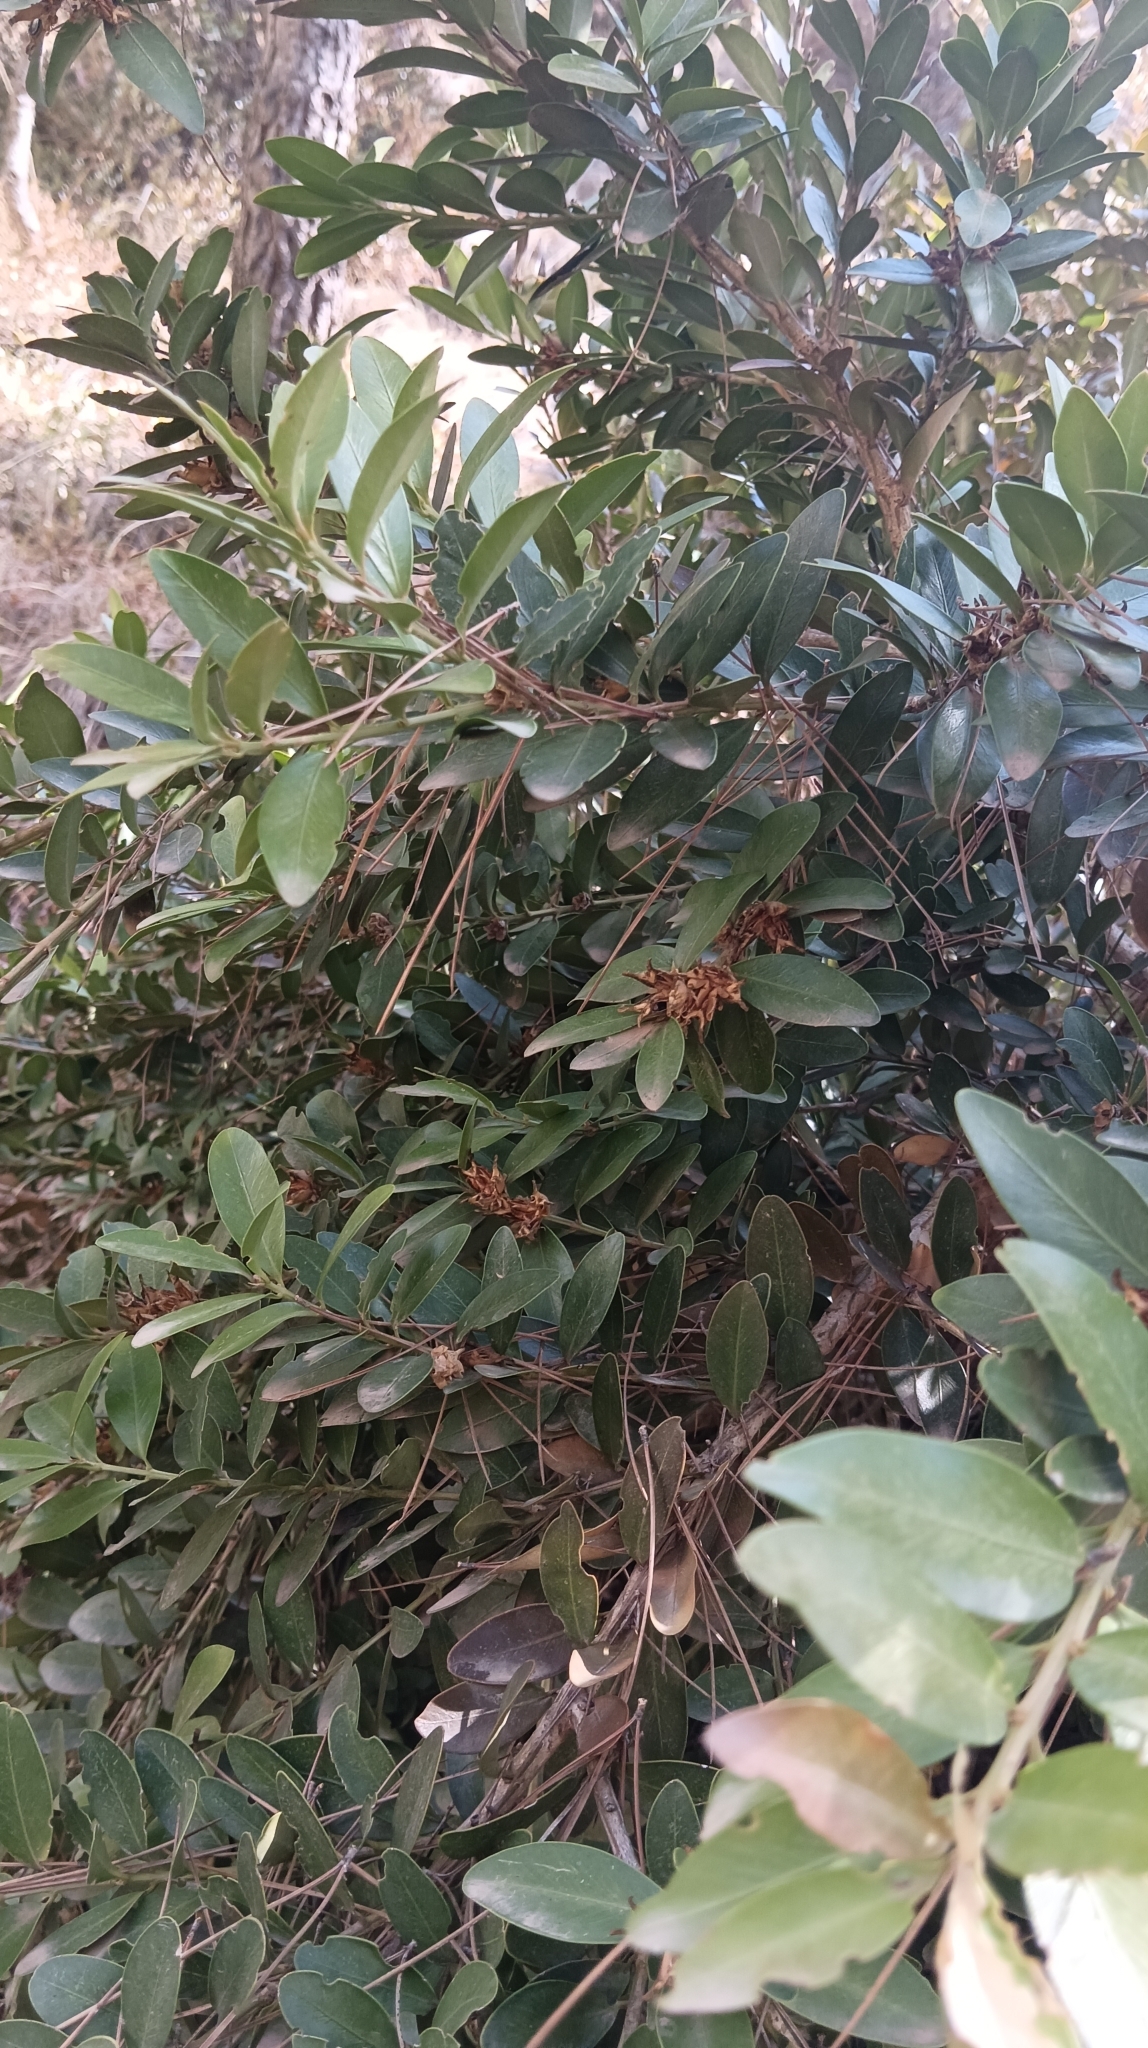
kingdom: Plantae
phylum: Tracheophyta
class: Magnoliopsida
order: Buxales
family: Buxaceae
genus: Buxus
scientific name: Buxus balearica
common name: Balearic box
